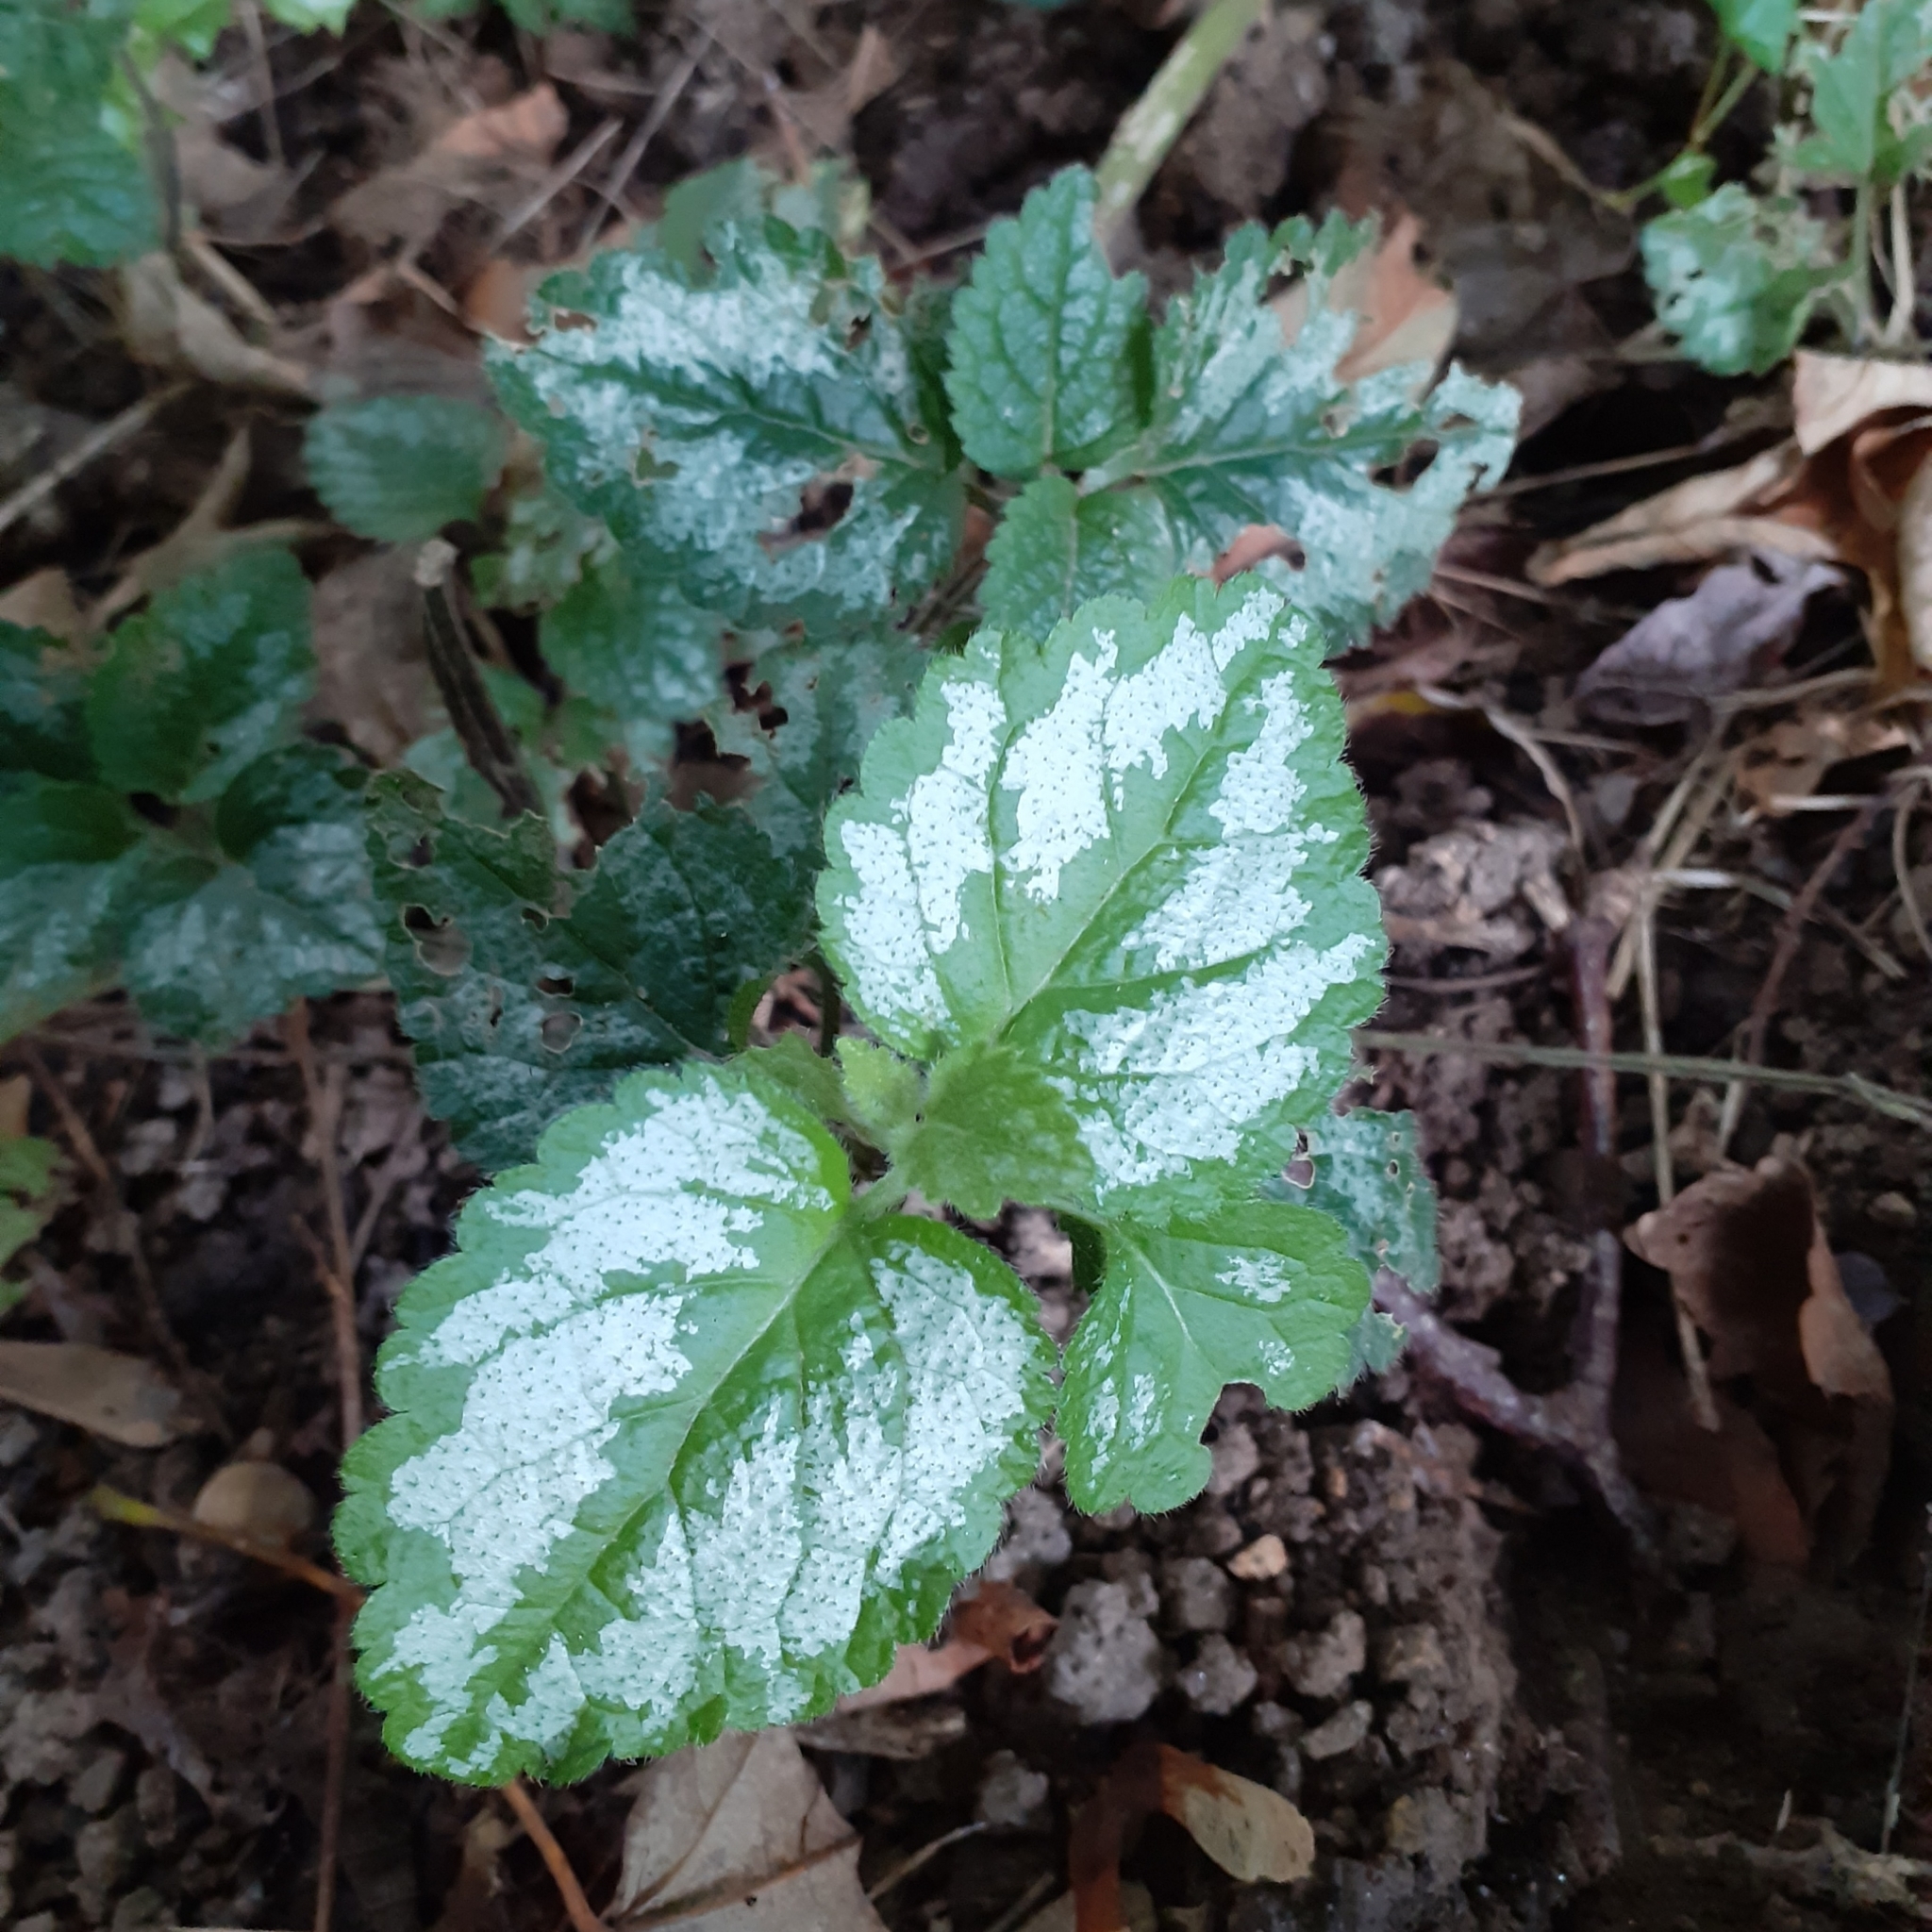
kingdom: Plantae
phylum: Tracheophyta
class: Magnoliopsida
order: Lamiales
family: Lamiaceae
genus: Lamium
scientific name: Lamium galeobdolon
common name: Yellow archangel
